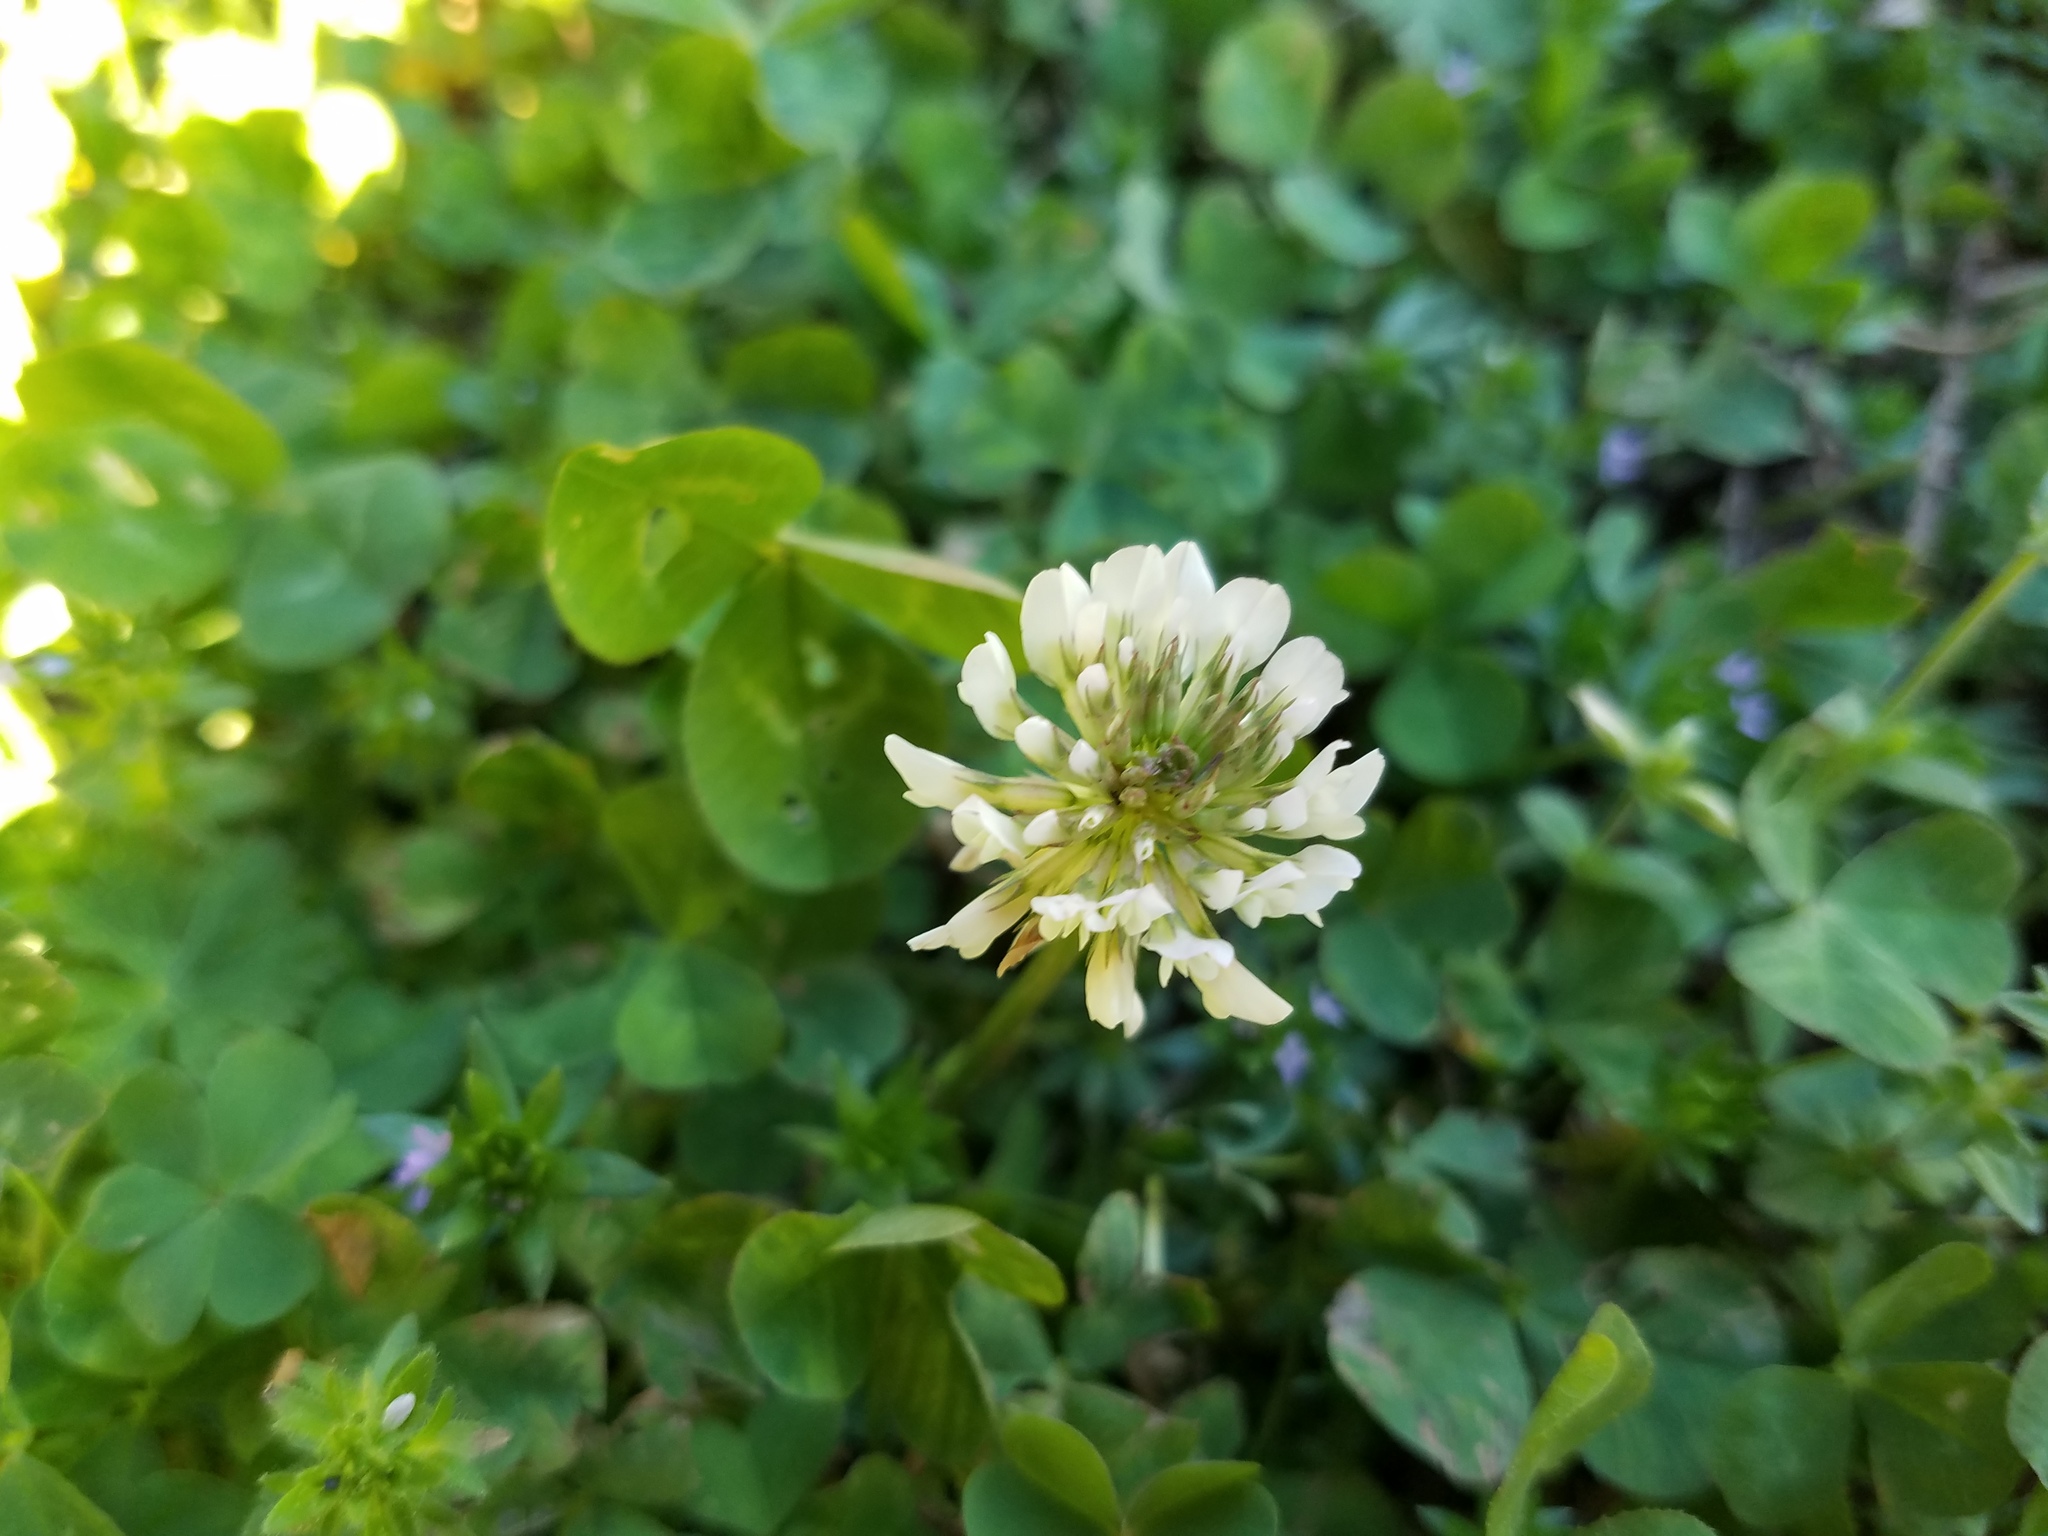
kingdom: Plantae
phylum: Tracheophyta
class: Magnoliopsida
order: Fabales
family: Fabaceae
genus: Trifolium
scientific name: Trifolium repens
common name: White clover
